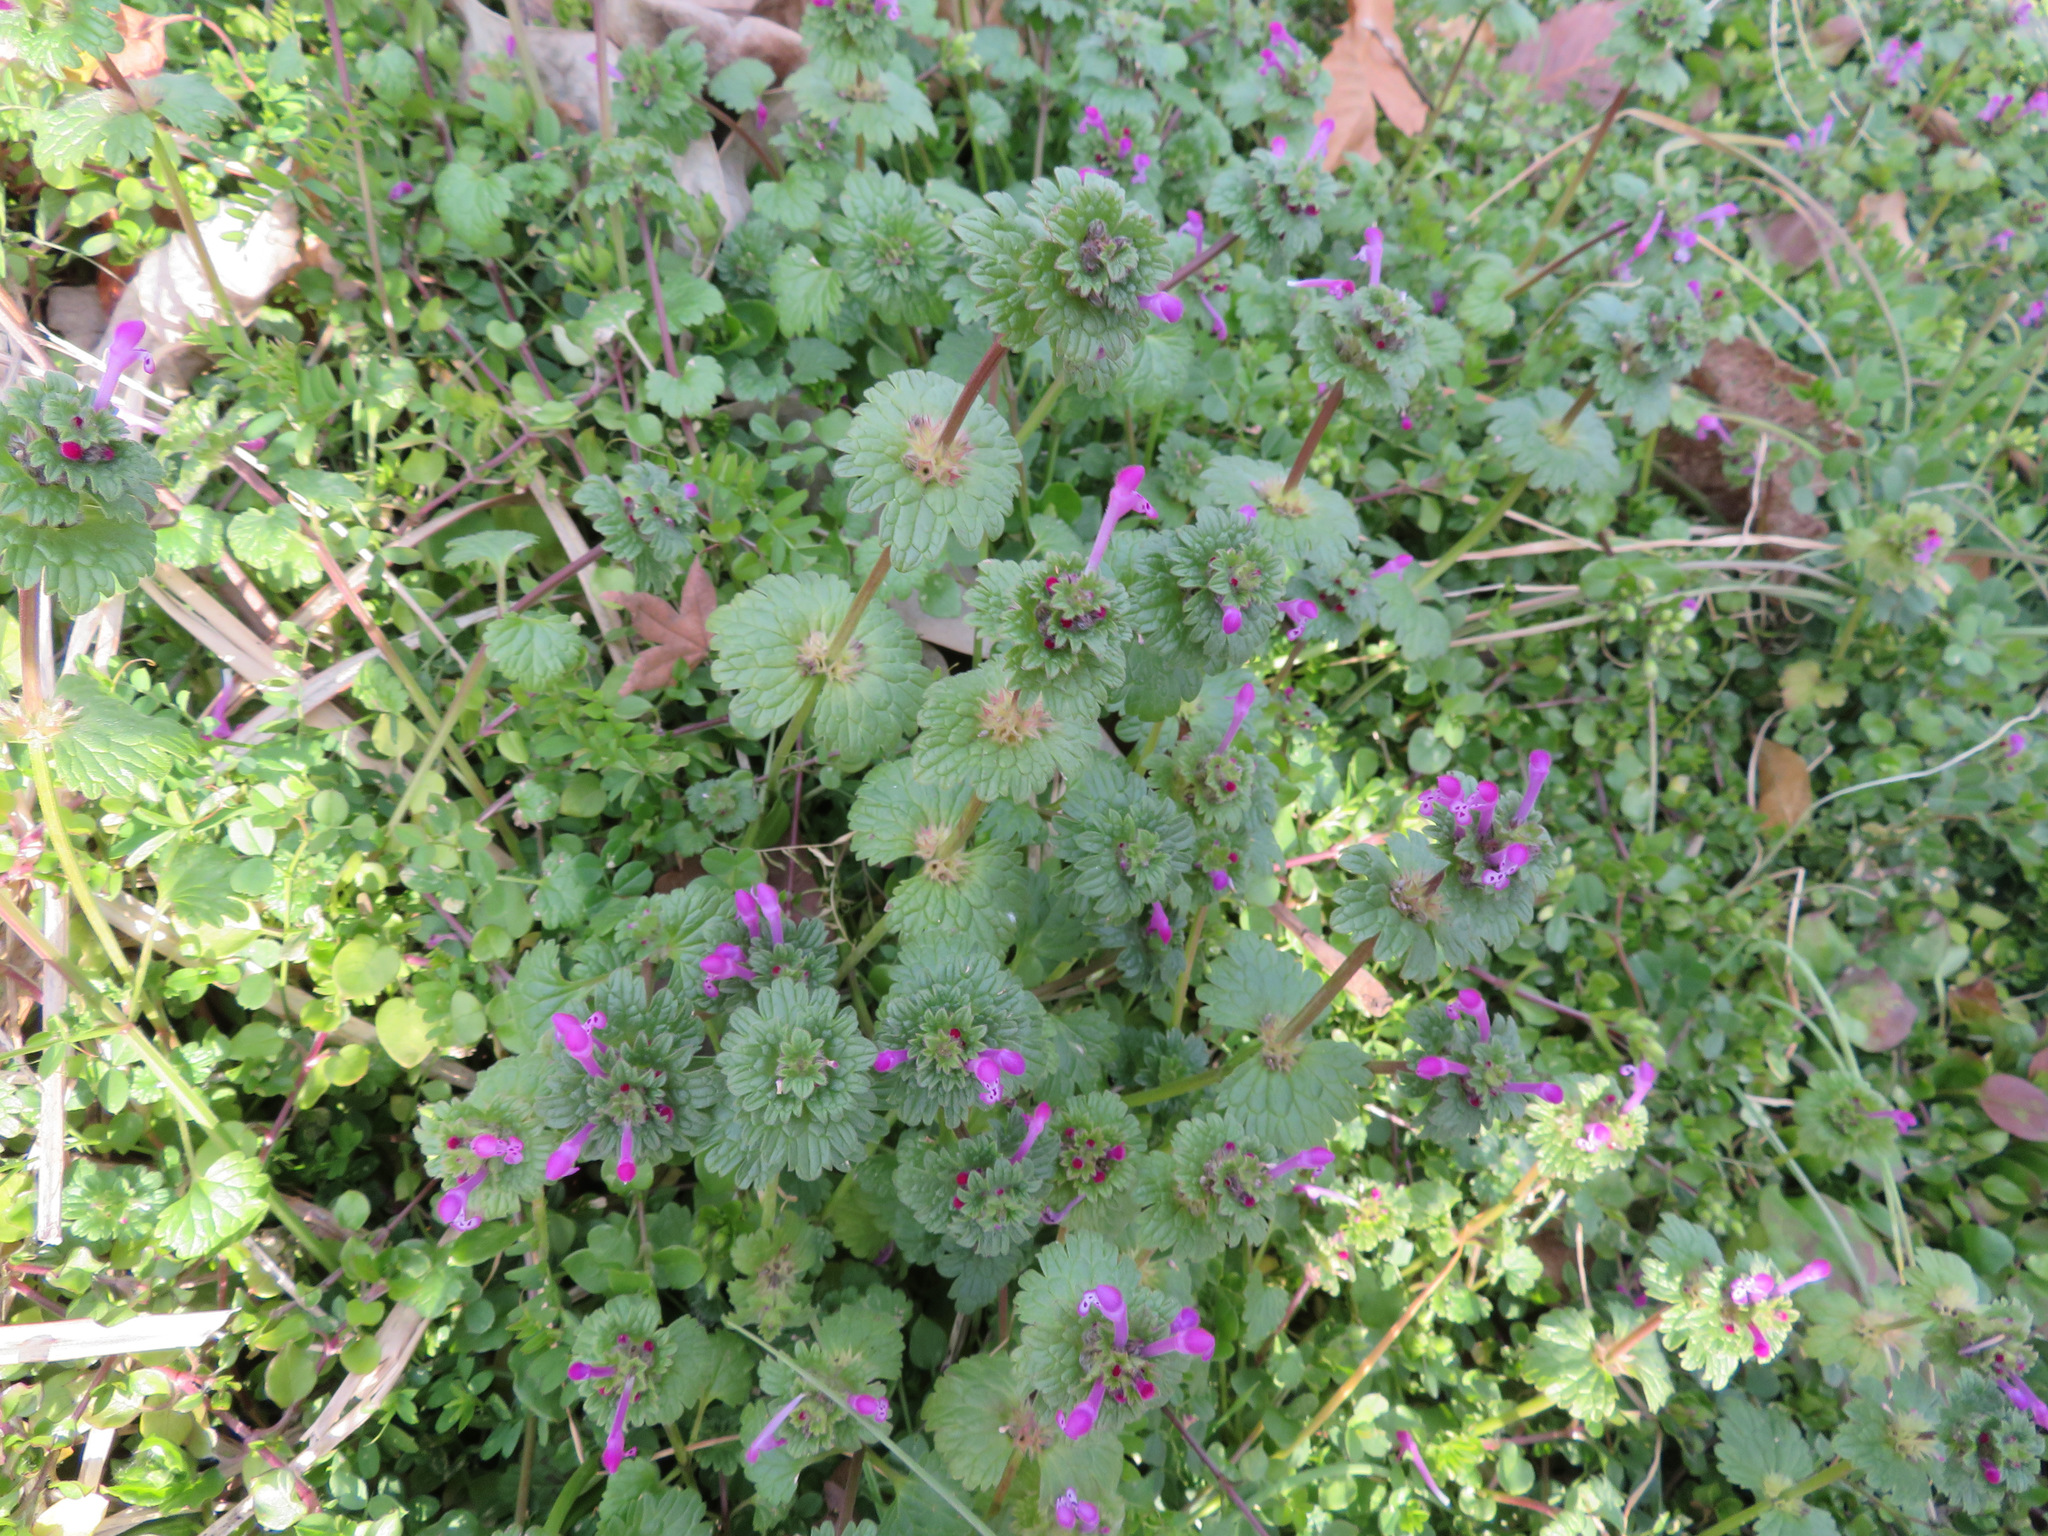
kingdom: Plantae
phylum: Tracheophyta
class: Magnoliopsida
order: Lamiales
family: Lamiaceae
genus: Lamium
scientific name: Lamium amplexicaule
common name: Henbit dead-nettle
